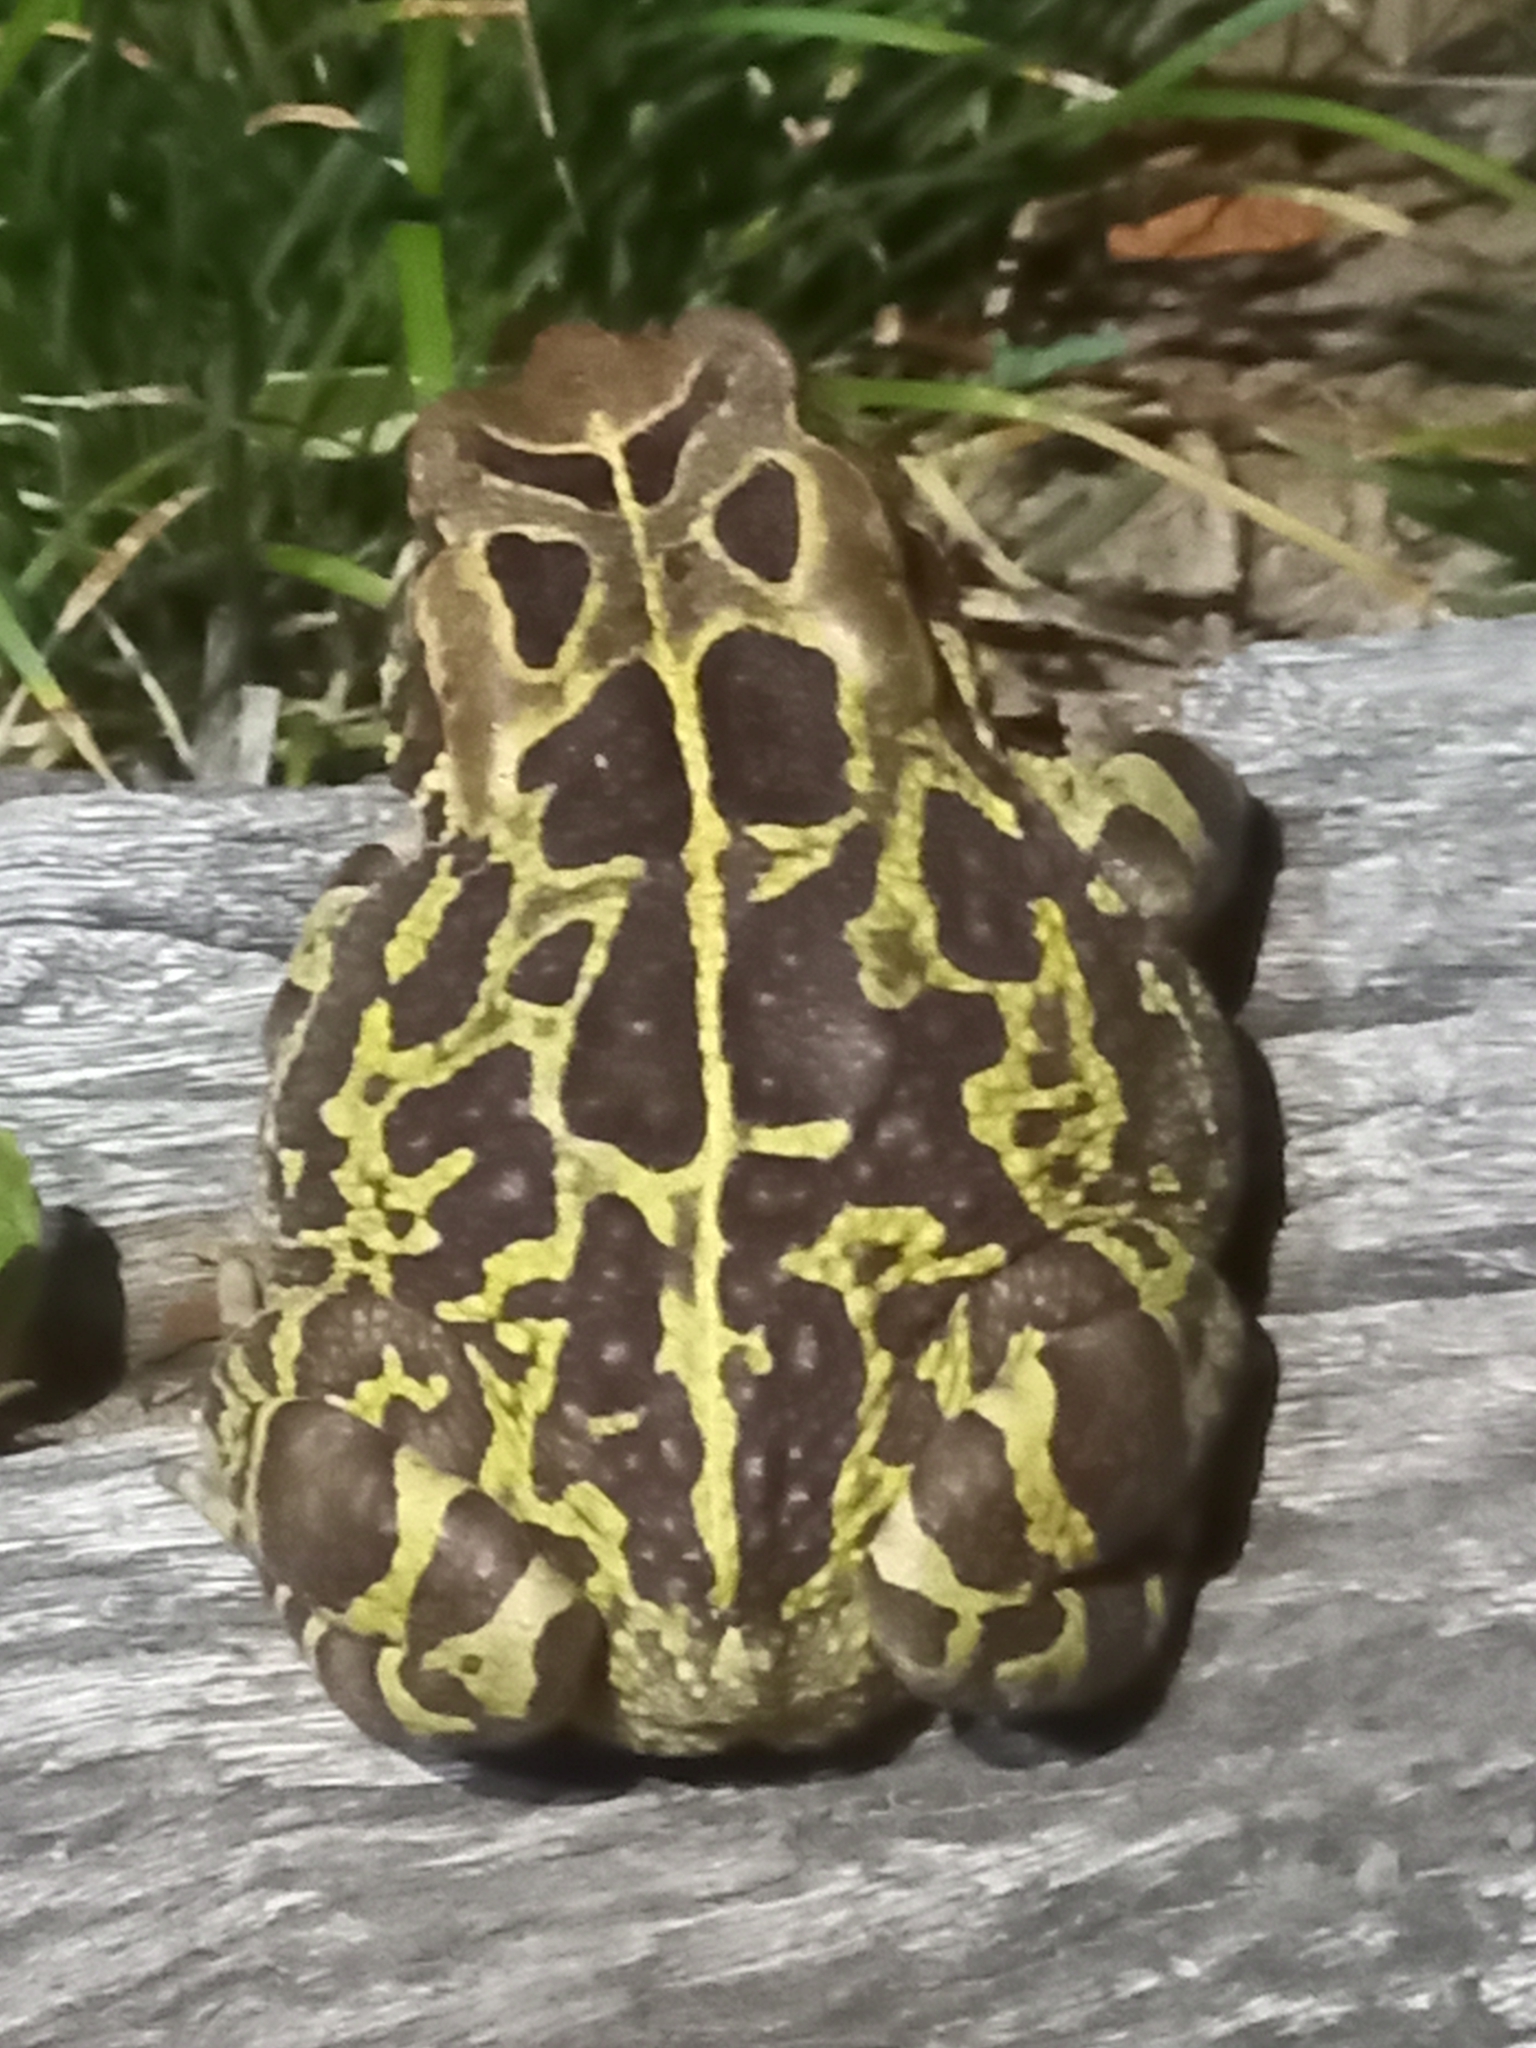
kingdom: Animalia
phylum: Chordata
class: Amphibia
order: Anura
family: Bufonidae
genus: Sclerophrys
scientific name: Sclerophrys pantherina
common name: Panther toad
